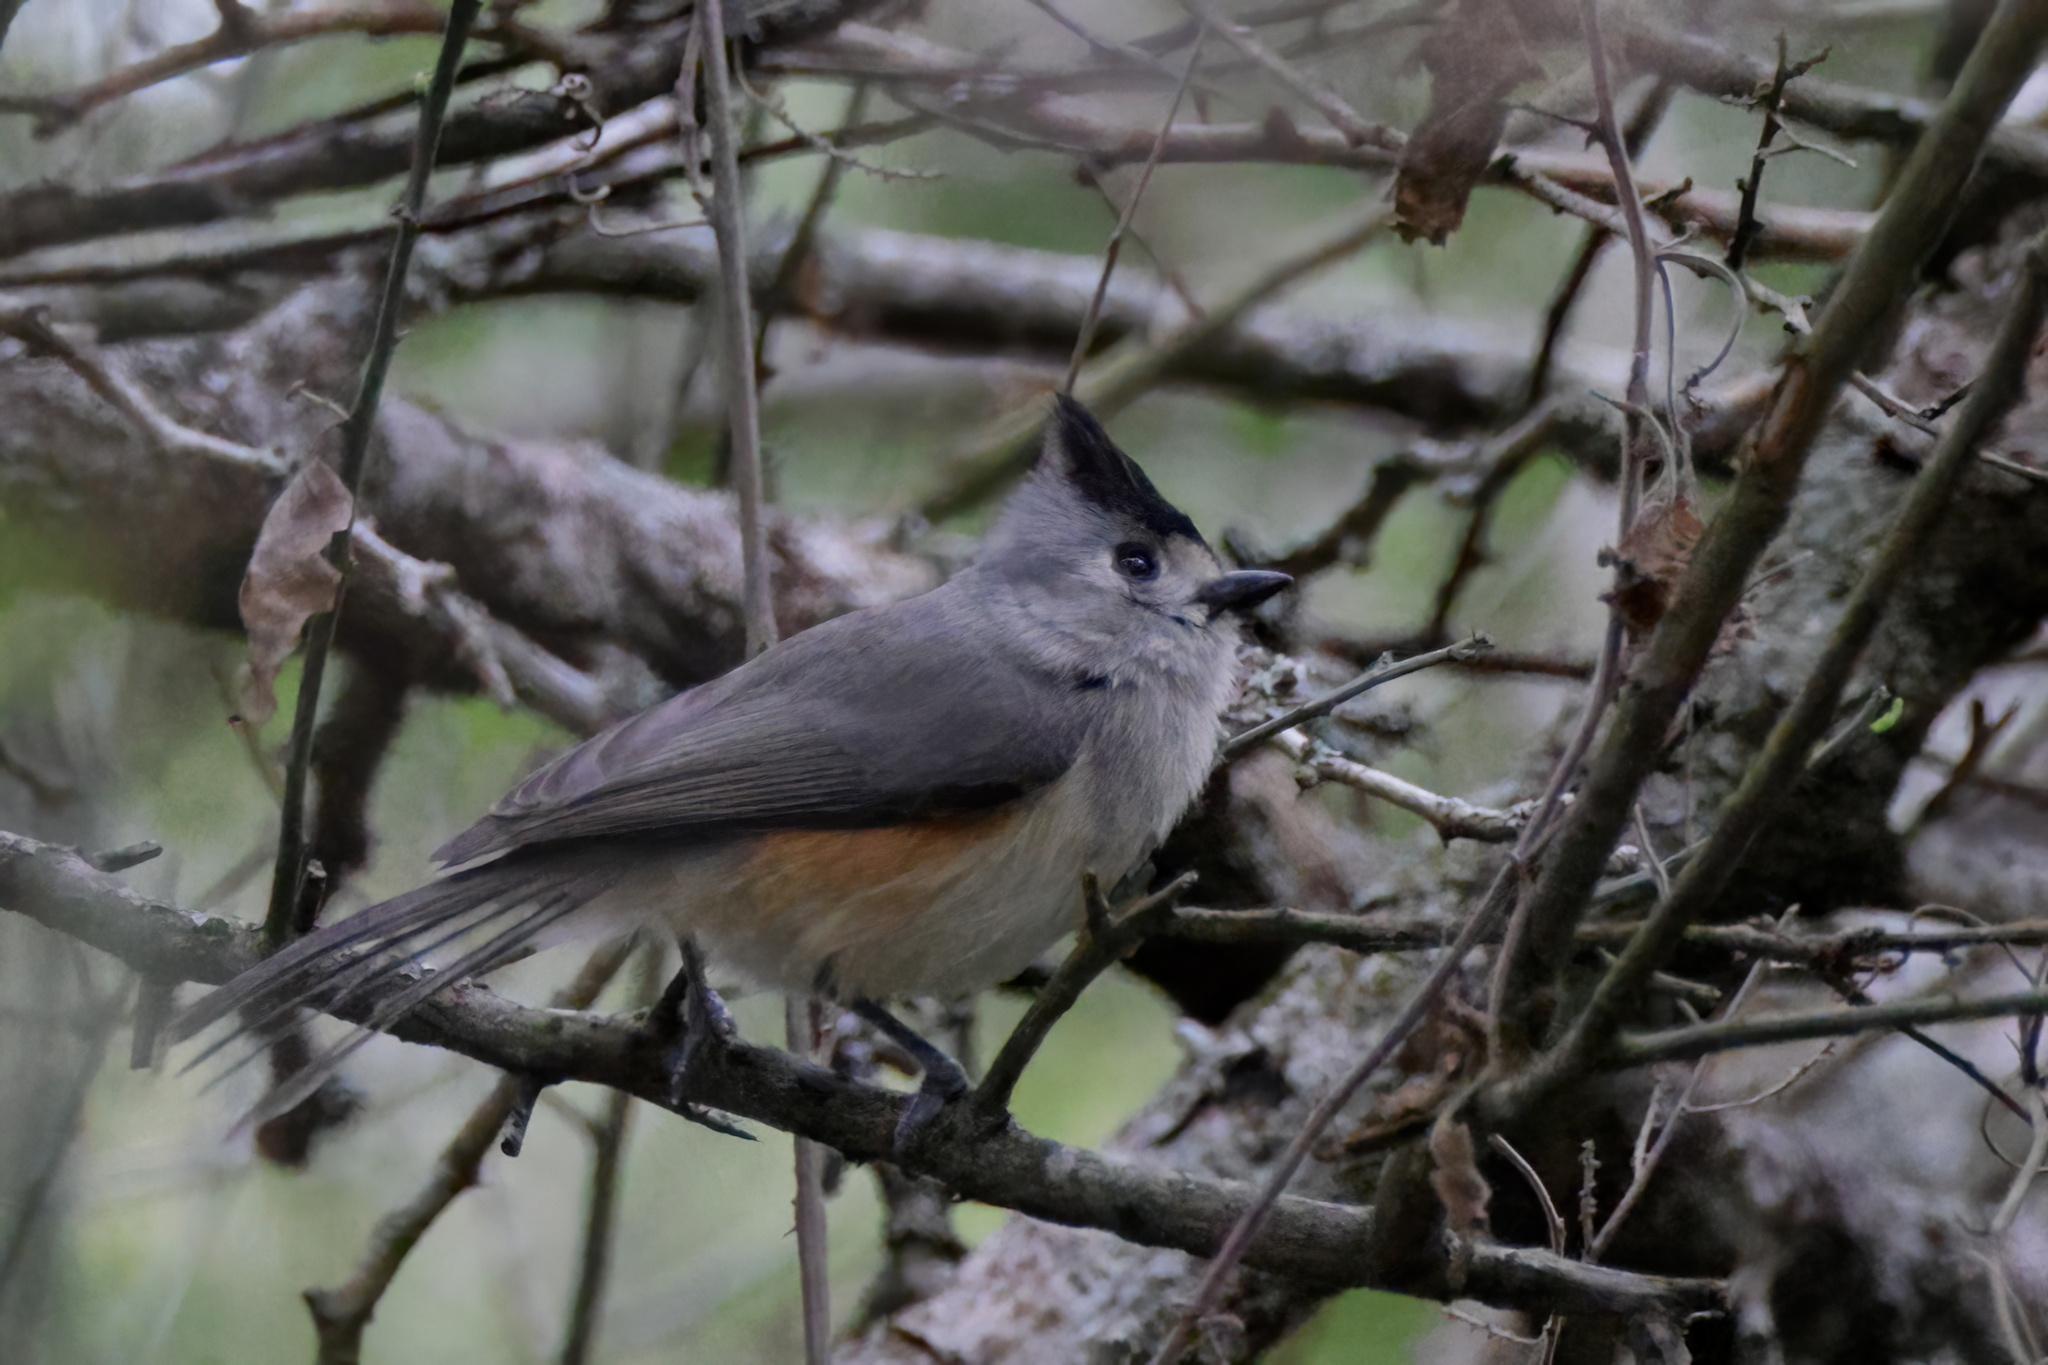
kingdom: Animalia
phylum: Chordata
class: Aves
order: Passeriformes
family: Paridae
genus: Baeolophus
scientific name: Baeolophus atricristatus
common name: Black-crested titmouse
